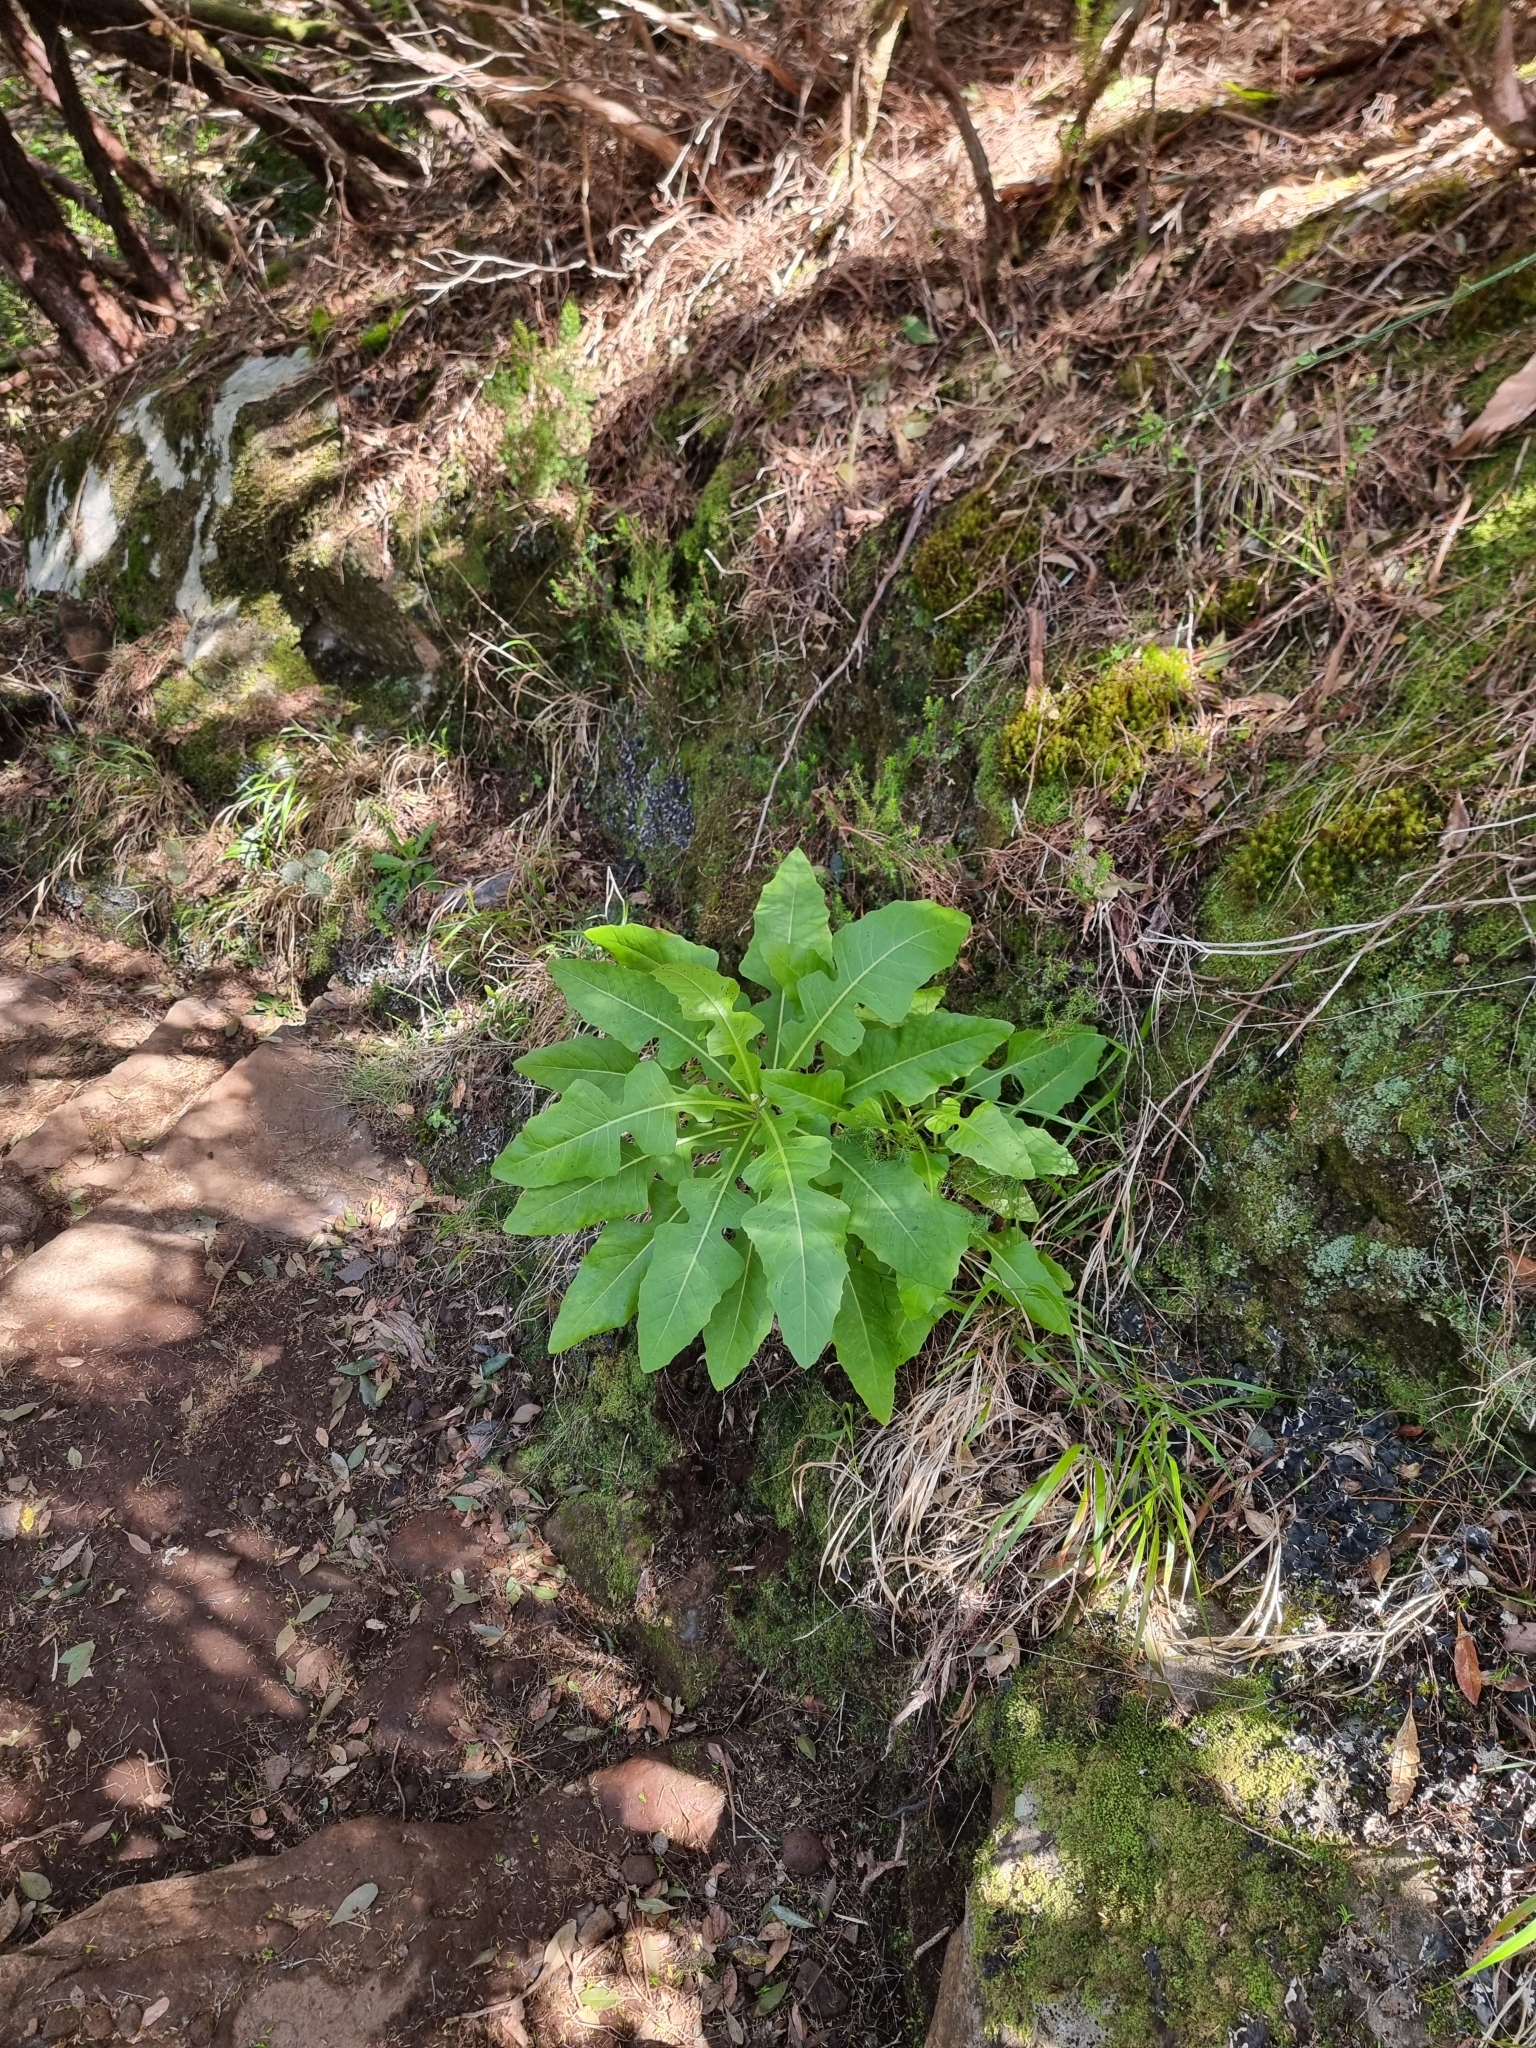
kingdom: Plantae
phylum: Tracheophyta
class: Magnoliopsida
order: Asterales
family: Asteraceae
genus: Sonchus
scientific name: Sonchus fruticosus
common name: Shrubby sow-thistle
